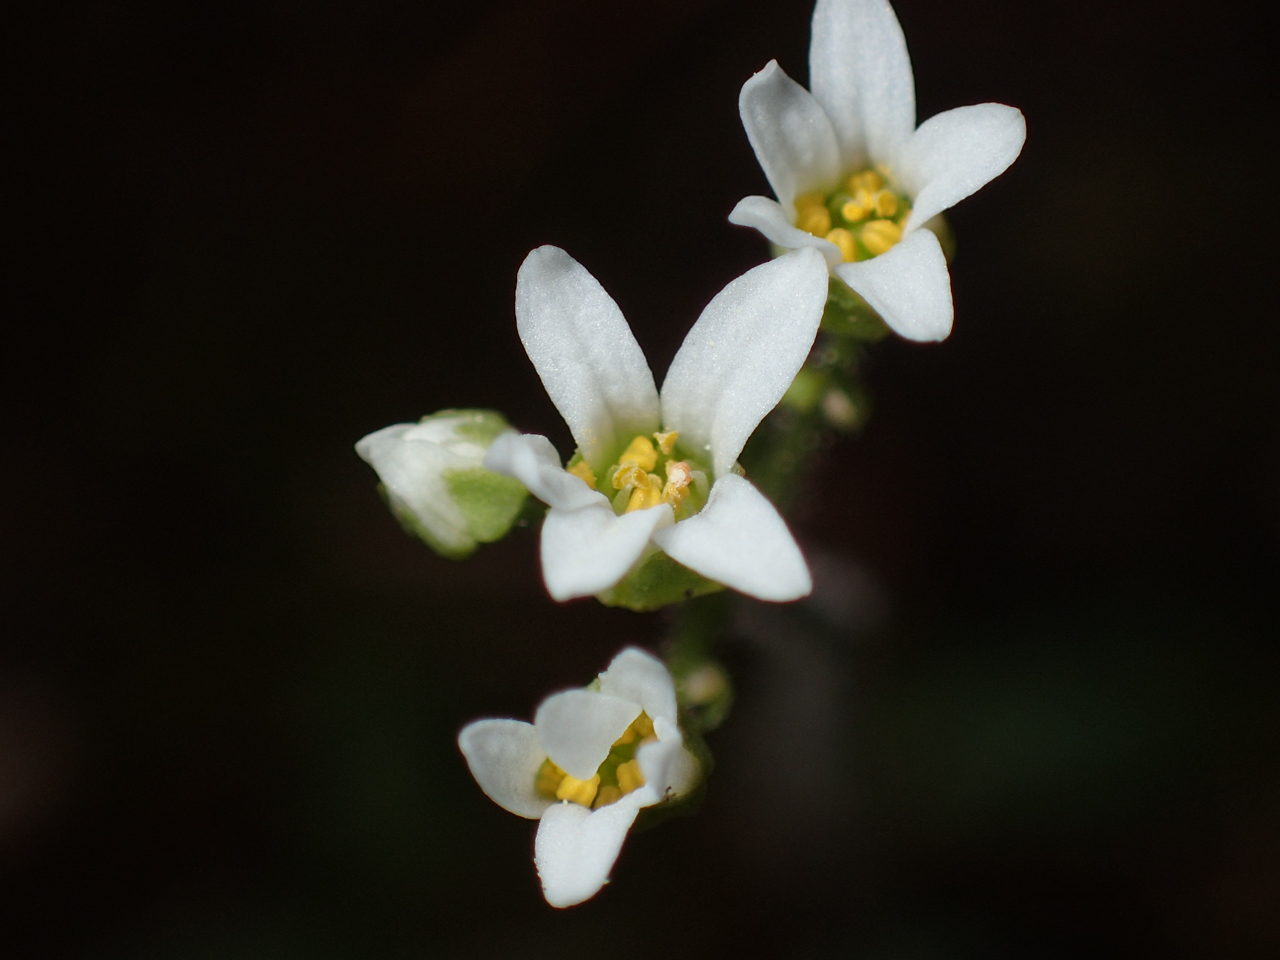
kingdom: Plantae
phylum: Tracheophyta
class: Magnoliopsida
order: Saxifragales
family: Saxifragaceae
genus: Micranthes
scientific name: Micranthes virginiensis
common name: Early saxifrage
